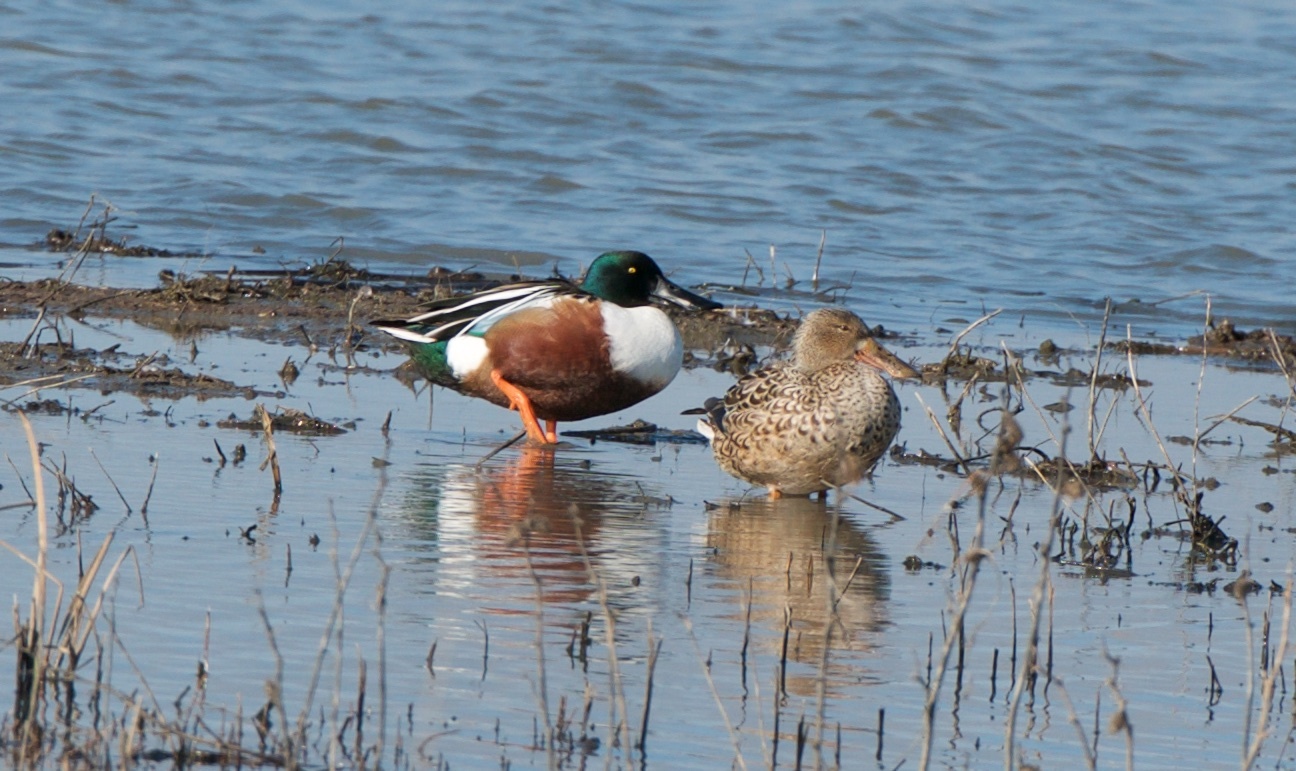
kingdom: Animalia
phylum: Chordata
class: Aves
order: Anseriformes
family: Anatidae
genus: Spatula
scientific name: Spatula clypeata
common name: Northern shoveler
